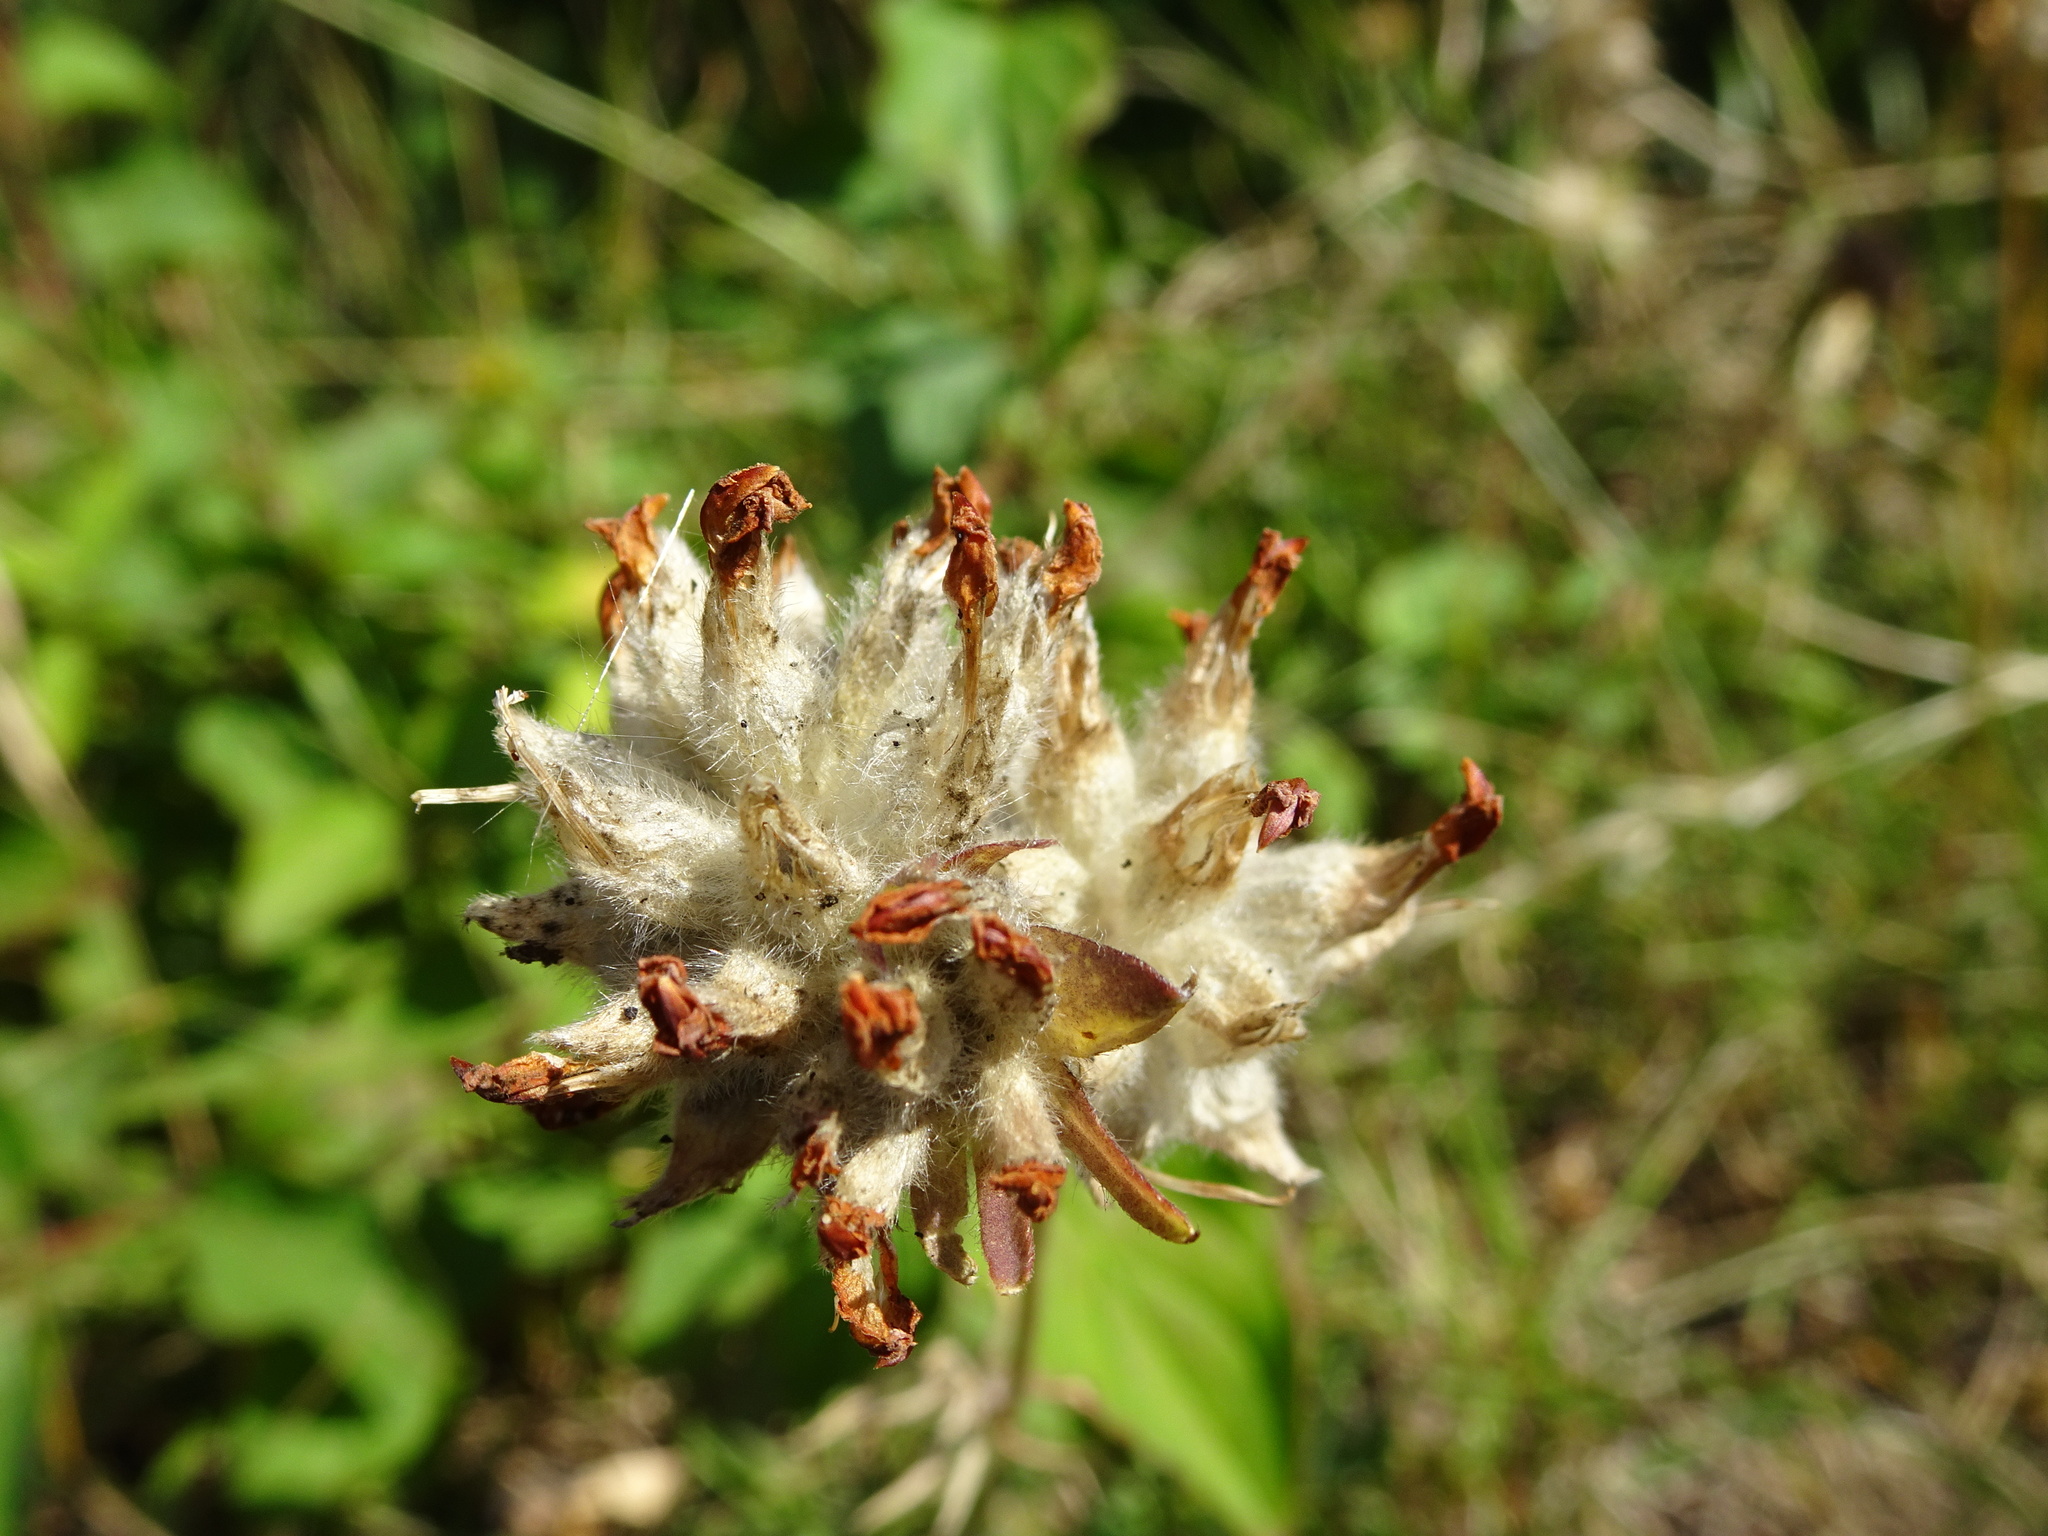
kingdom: Plantae
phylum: Tracheophyta
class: Magnoliopsida
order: Fabales
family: Fabaceae
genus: Anthyllis
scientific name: Anthyllis vulneraria
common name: Kidney vetch
